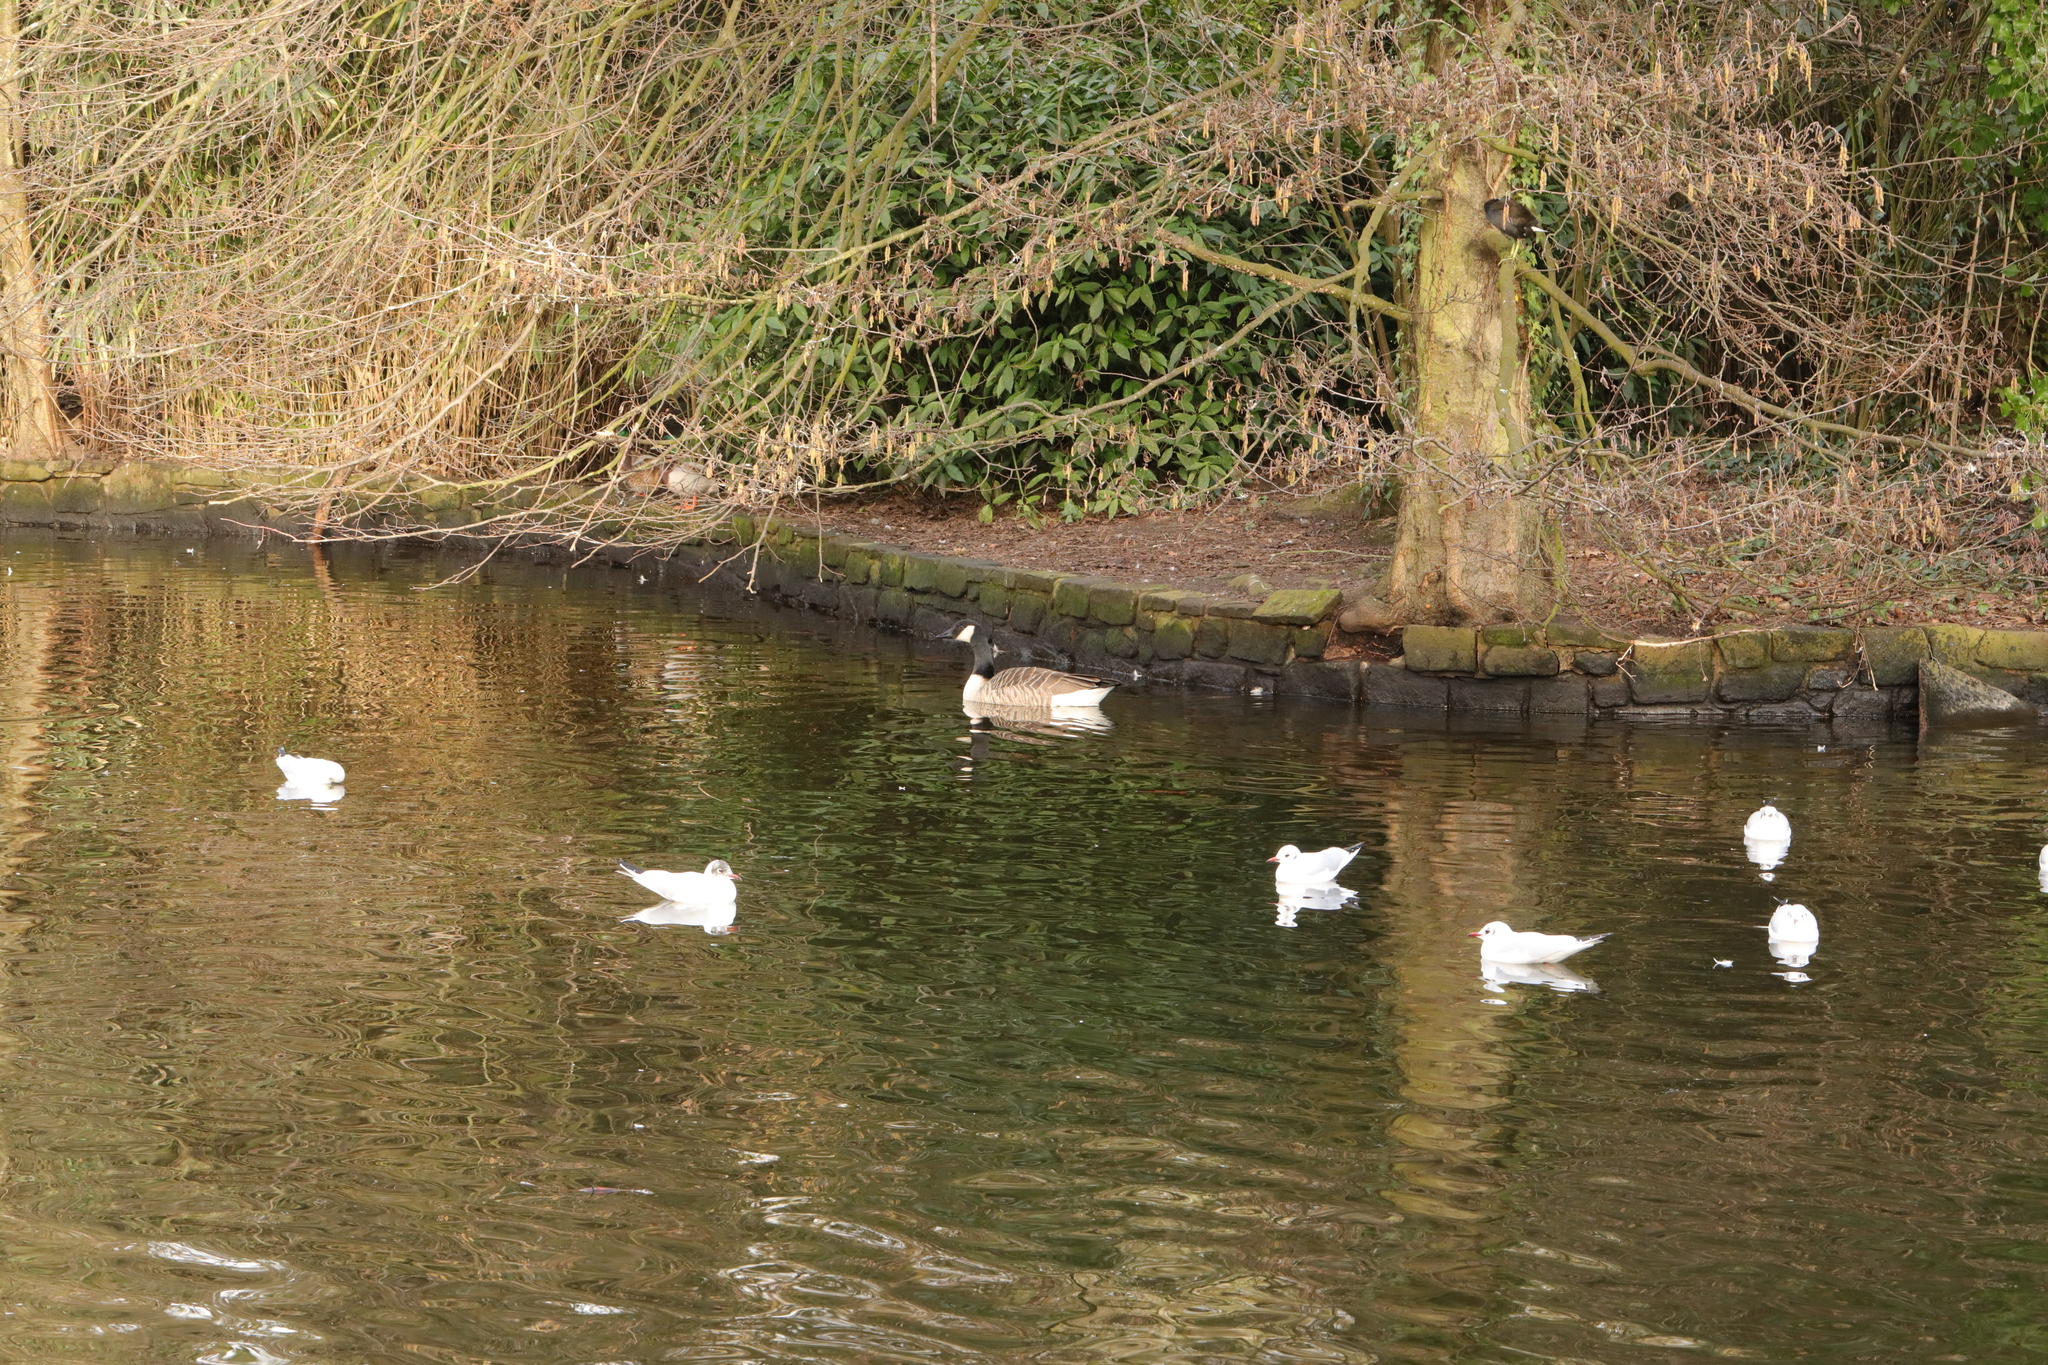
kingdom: Animalia
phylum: Chordata
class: Aves
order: Anseriformes
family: Anatidae
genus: Branta
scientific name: Branta canadensis
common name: Canada goose
